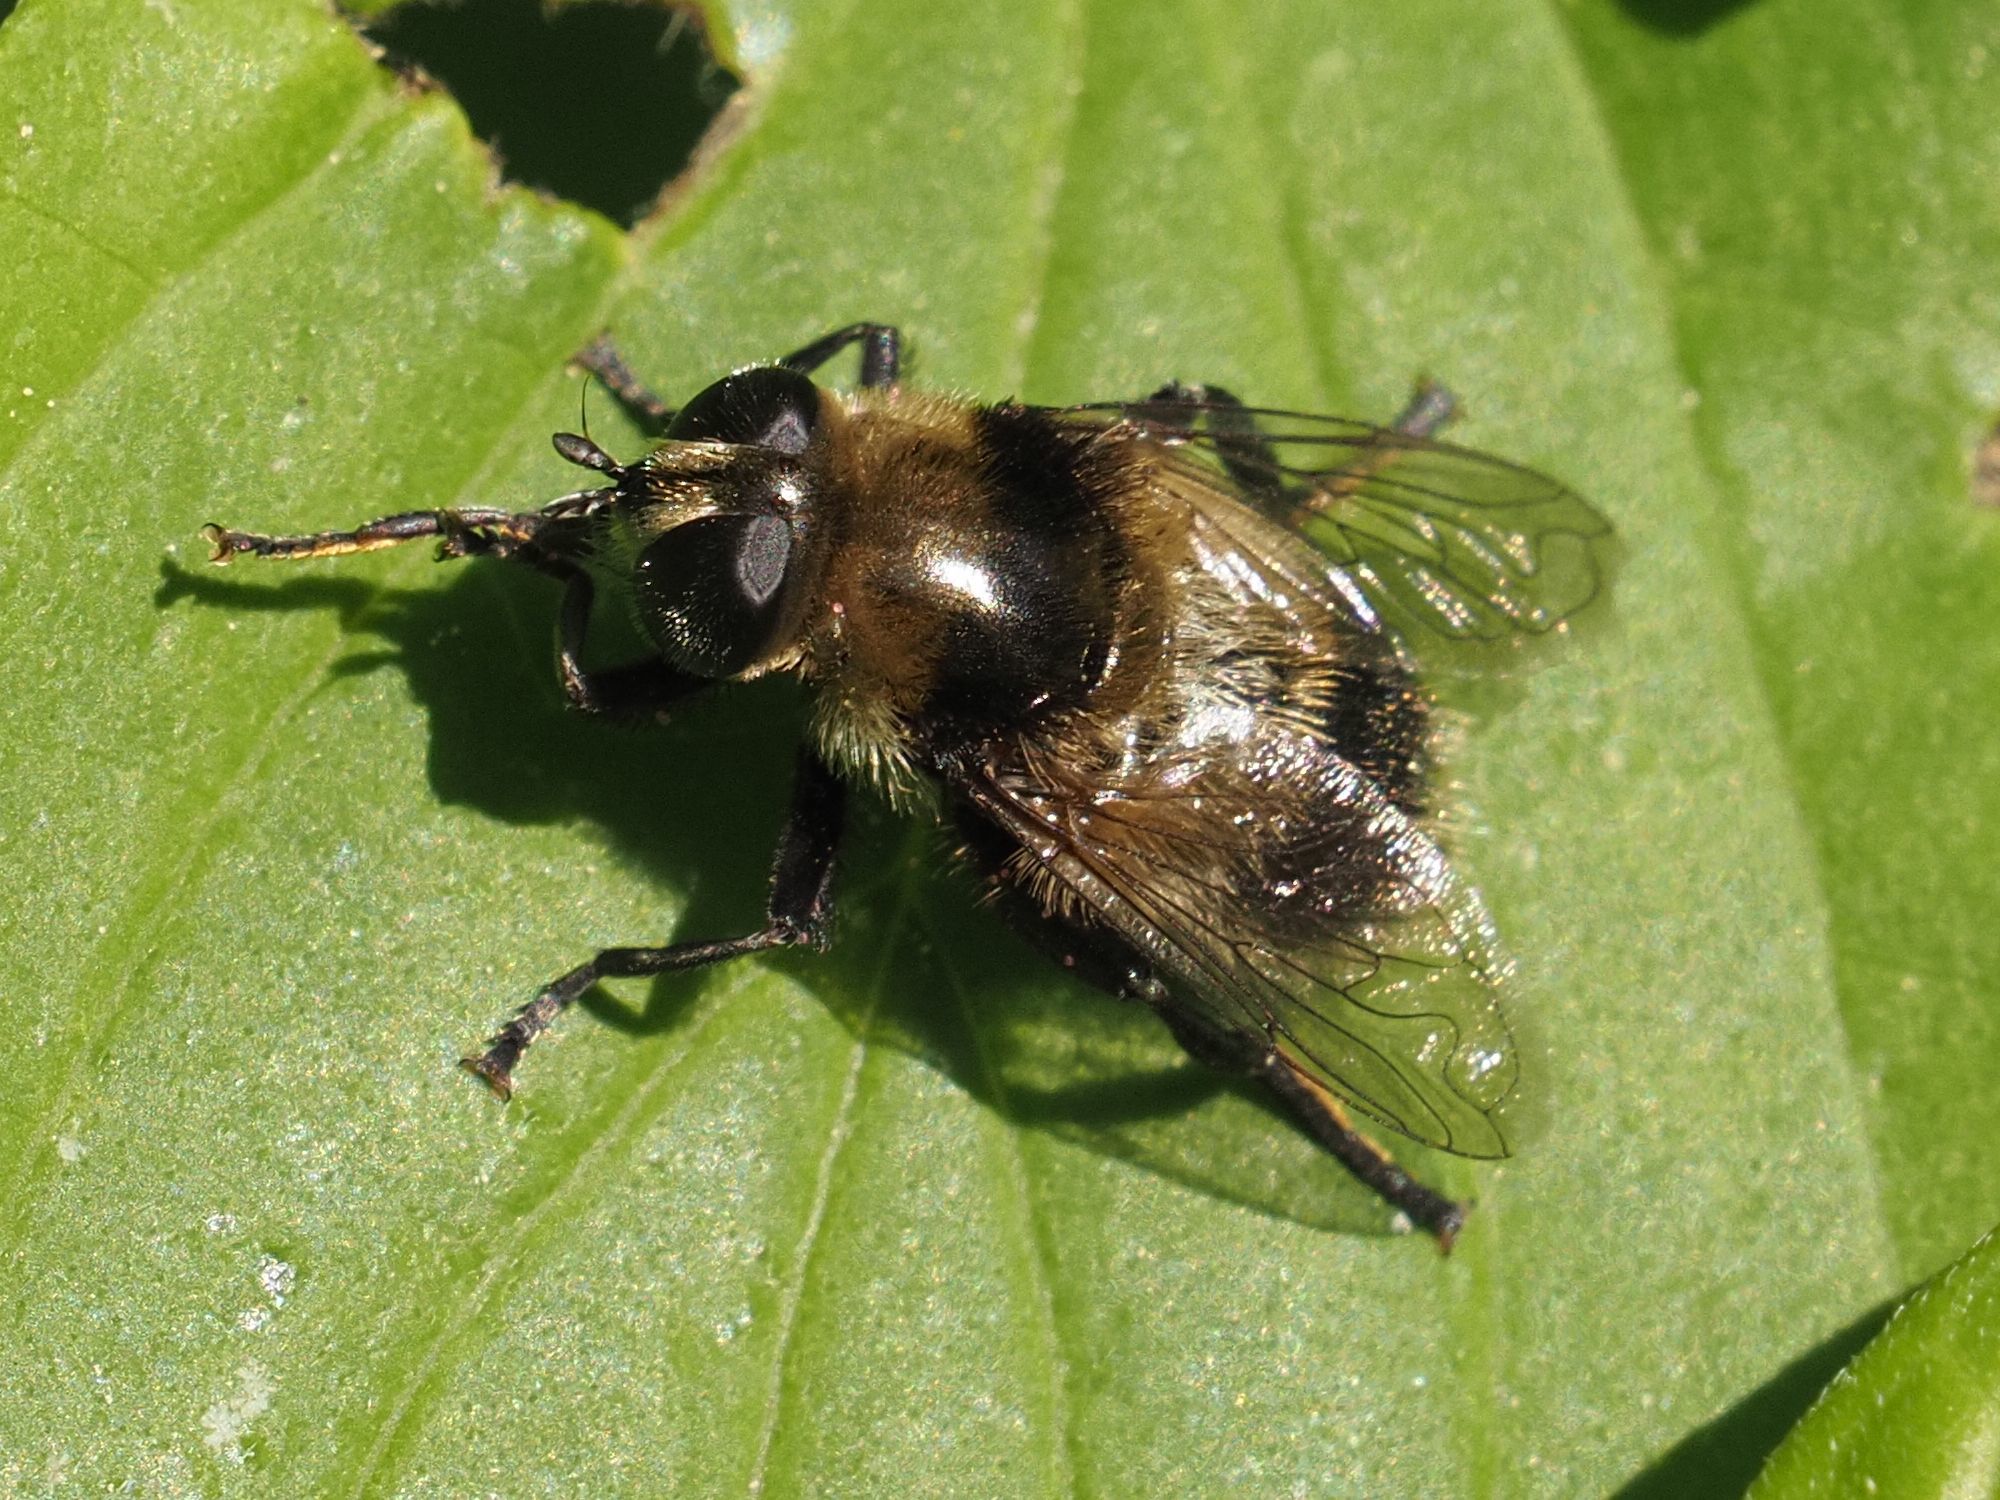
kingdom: Animalia
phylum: Arthropoda
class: Insecta
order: Diptera
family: Syrphidae
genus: Merodon
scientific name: Merodon equestris
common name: Greater bulb-fly
